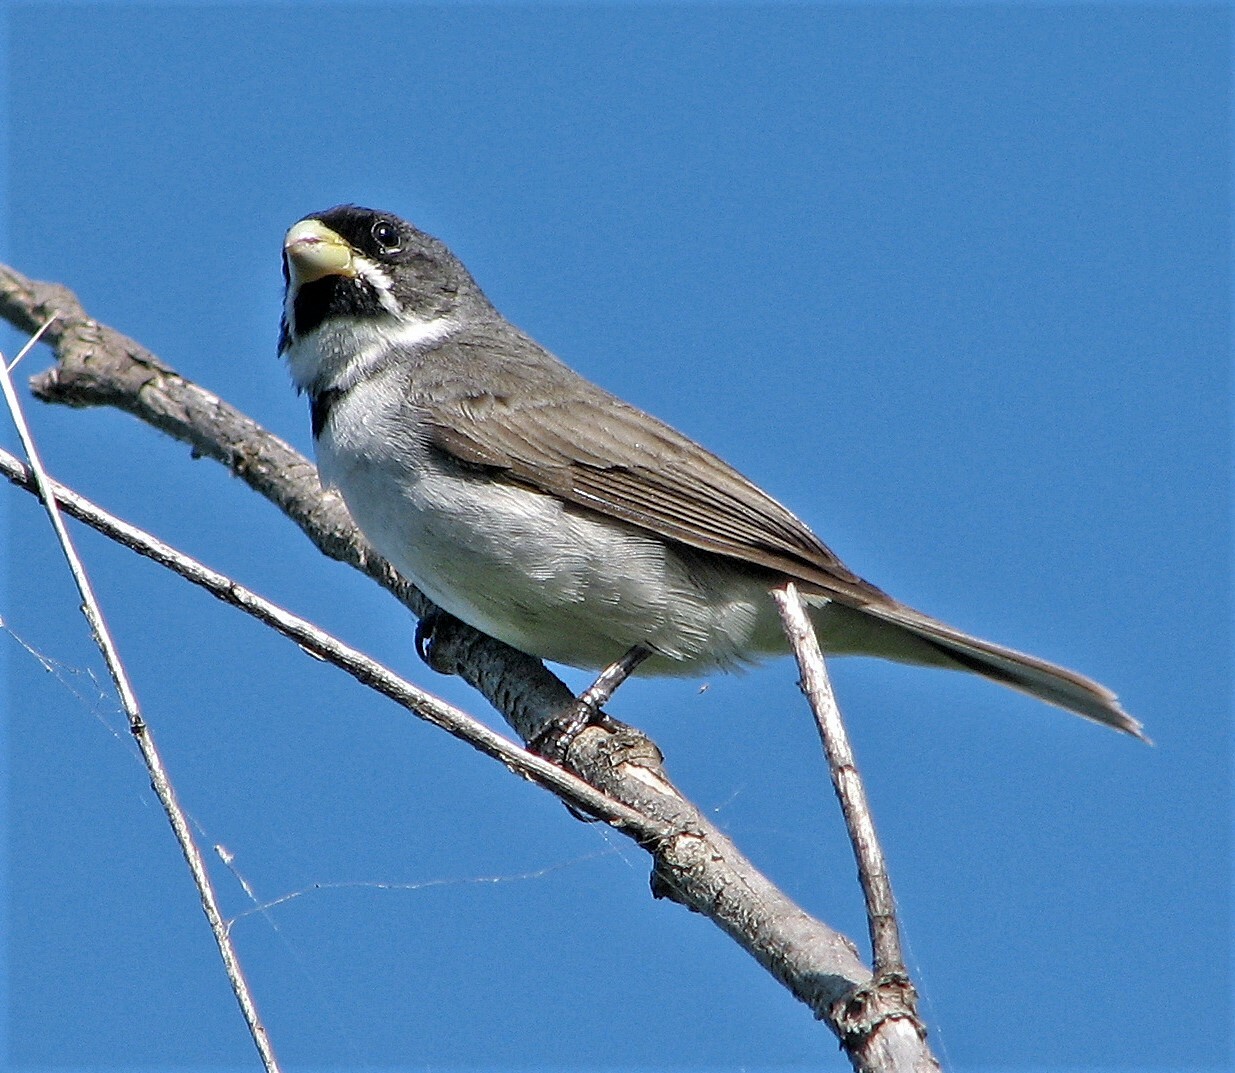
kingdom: Animalia
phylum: Chordata
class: Aves
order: Passeriformes
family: Thraupidae
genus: Sporophila
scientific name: Sporophila caerulescens
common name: Double-collared seedeater
